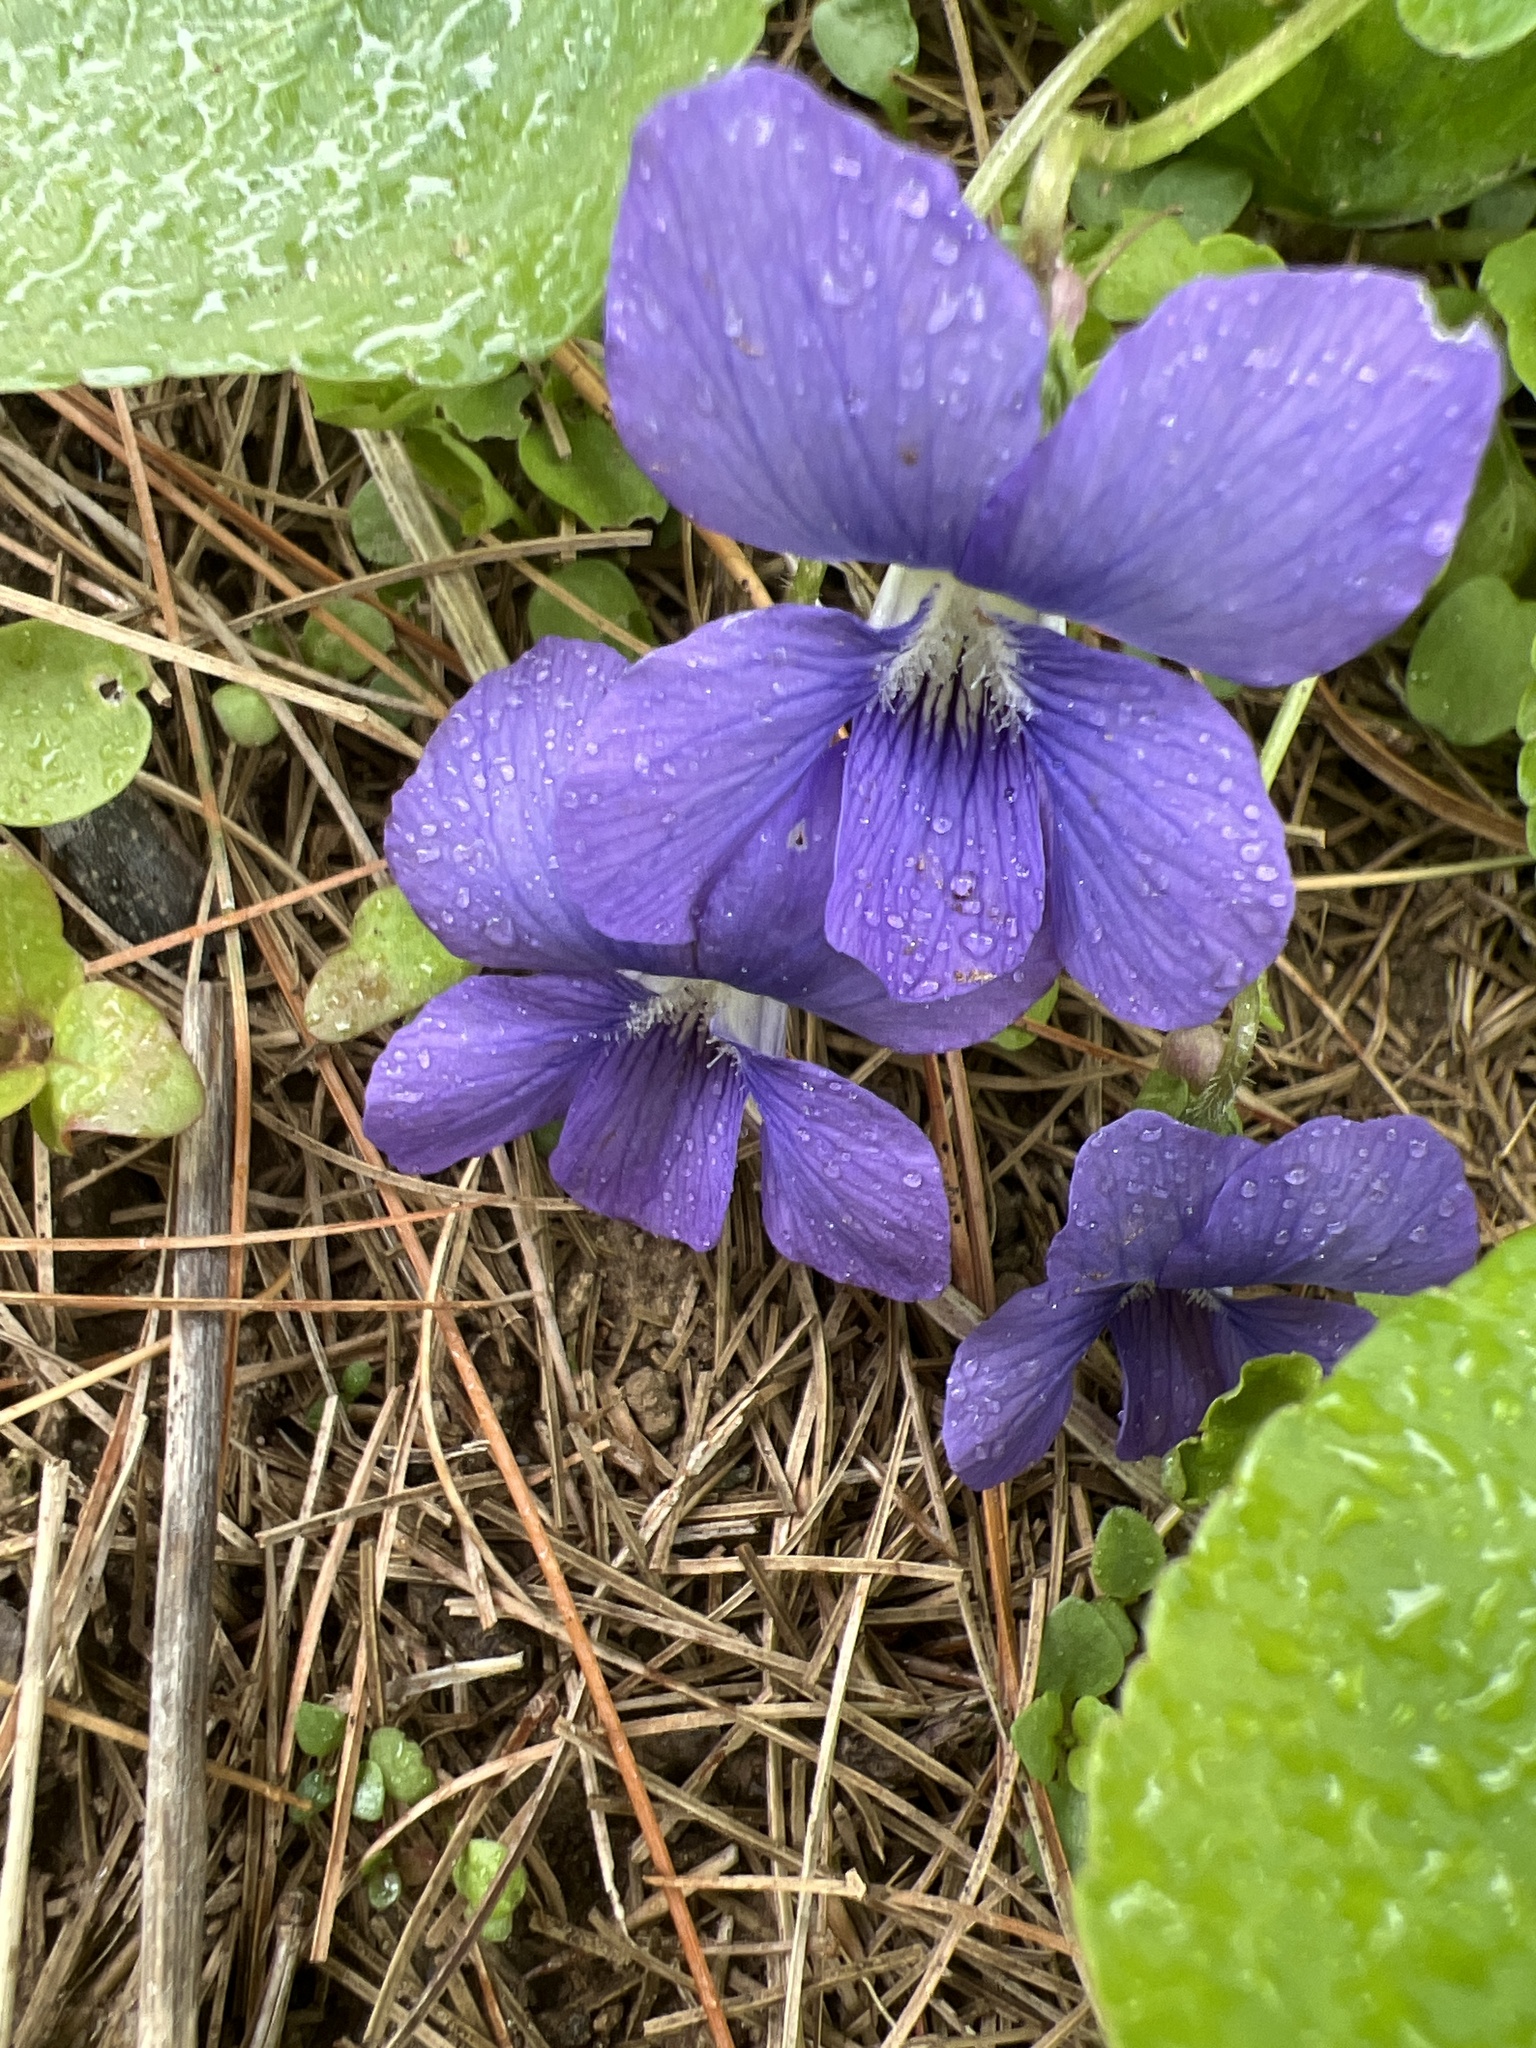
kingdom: Plantae
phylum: Tracheophyta
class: Magnoliopsida
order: Malpighiales
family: Violaceae
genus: Viola
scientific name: Viola sororia
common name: Dooryard violet
